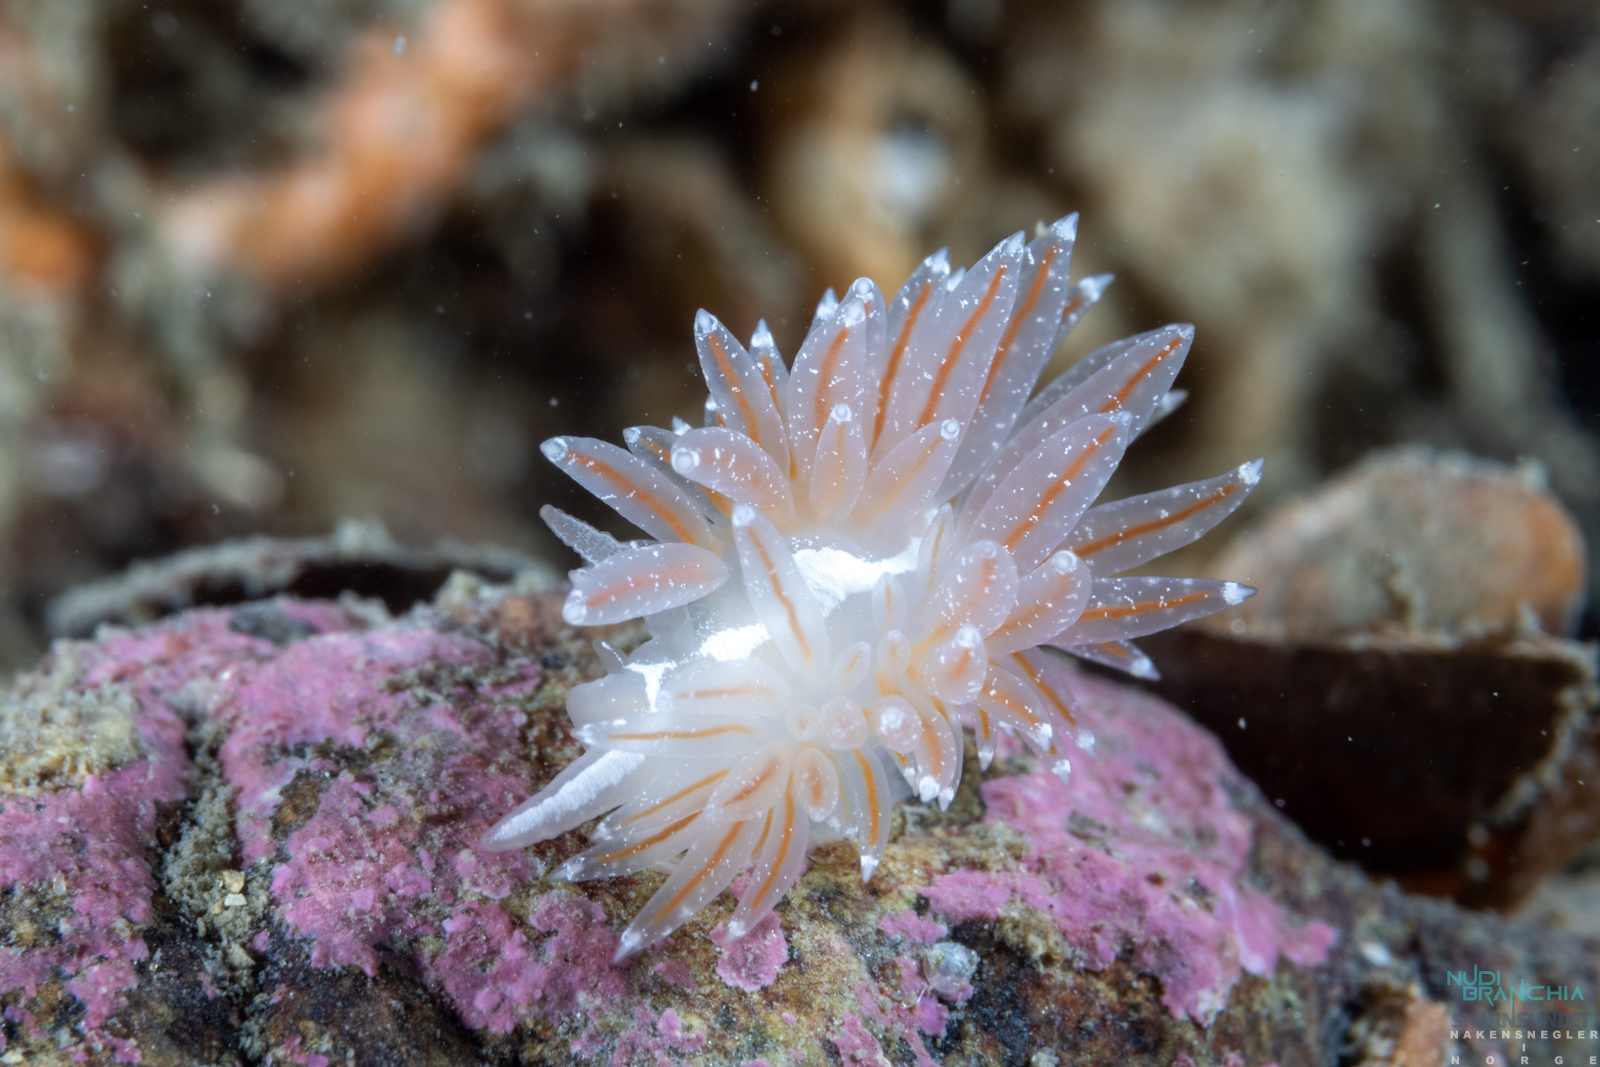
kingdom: Animalia
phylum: Mollusca
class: Gastropoda
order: Nudibranchia
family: Coryphellidae
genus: Coryphella
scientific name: Coryphella monicae
